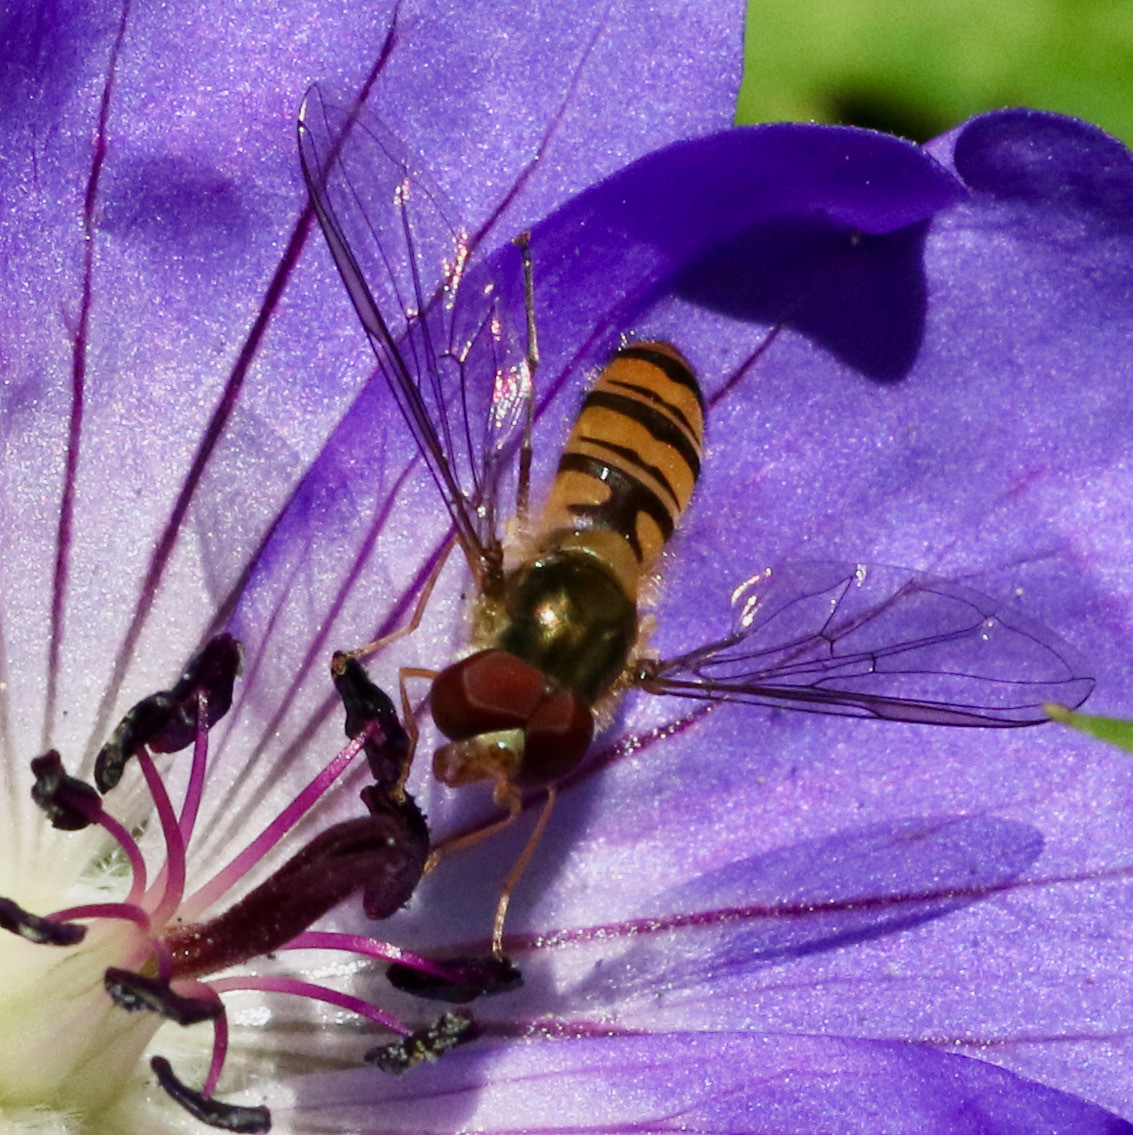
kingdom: Animalia
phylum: Arthropoda
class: Insecta
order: Diptera
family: Syrphidae
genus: Episyrphus
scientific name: Episyrphus balteatus
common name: Marmalade hoverfly
